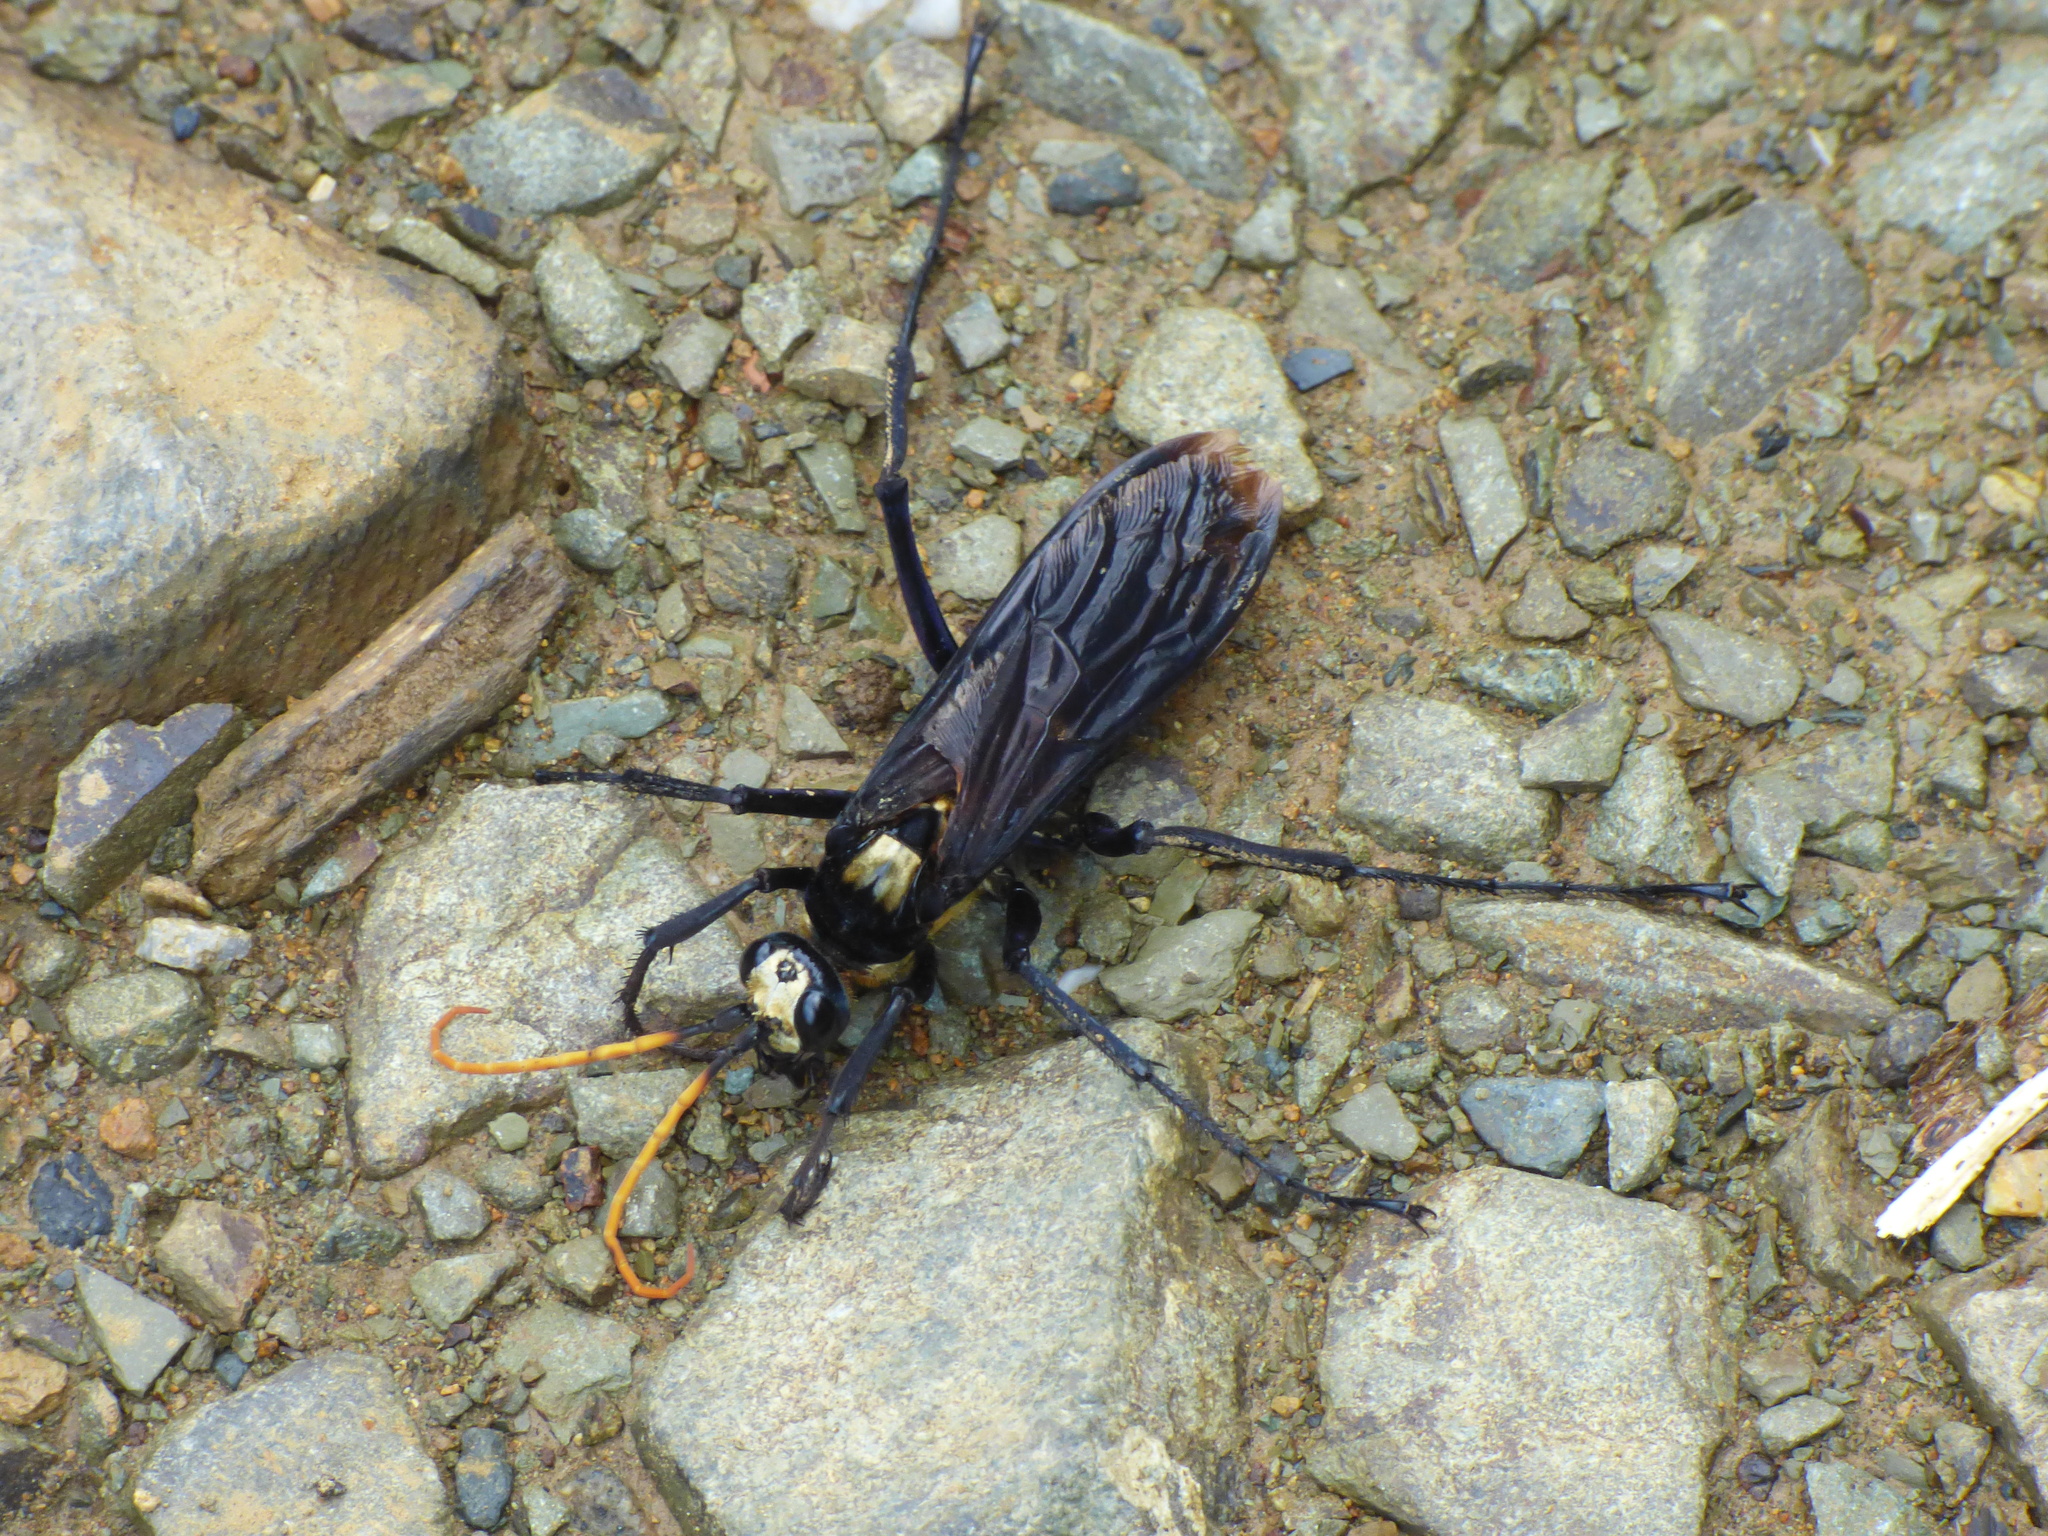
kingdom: Animalia
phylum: Arthropoda
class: Insecta
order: Hymenoptera
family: Pompilidae
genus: Pepsis
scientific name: Pepsis sumptuosa
